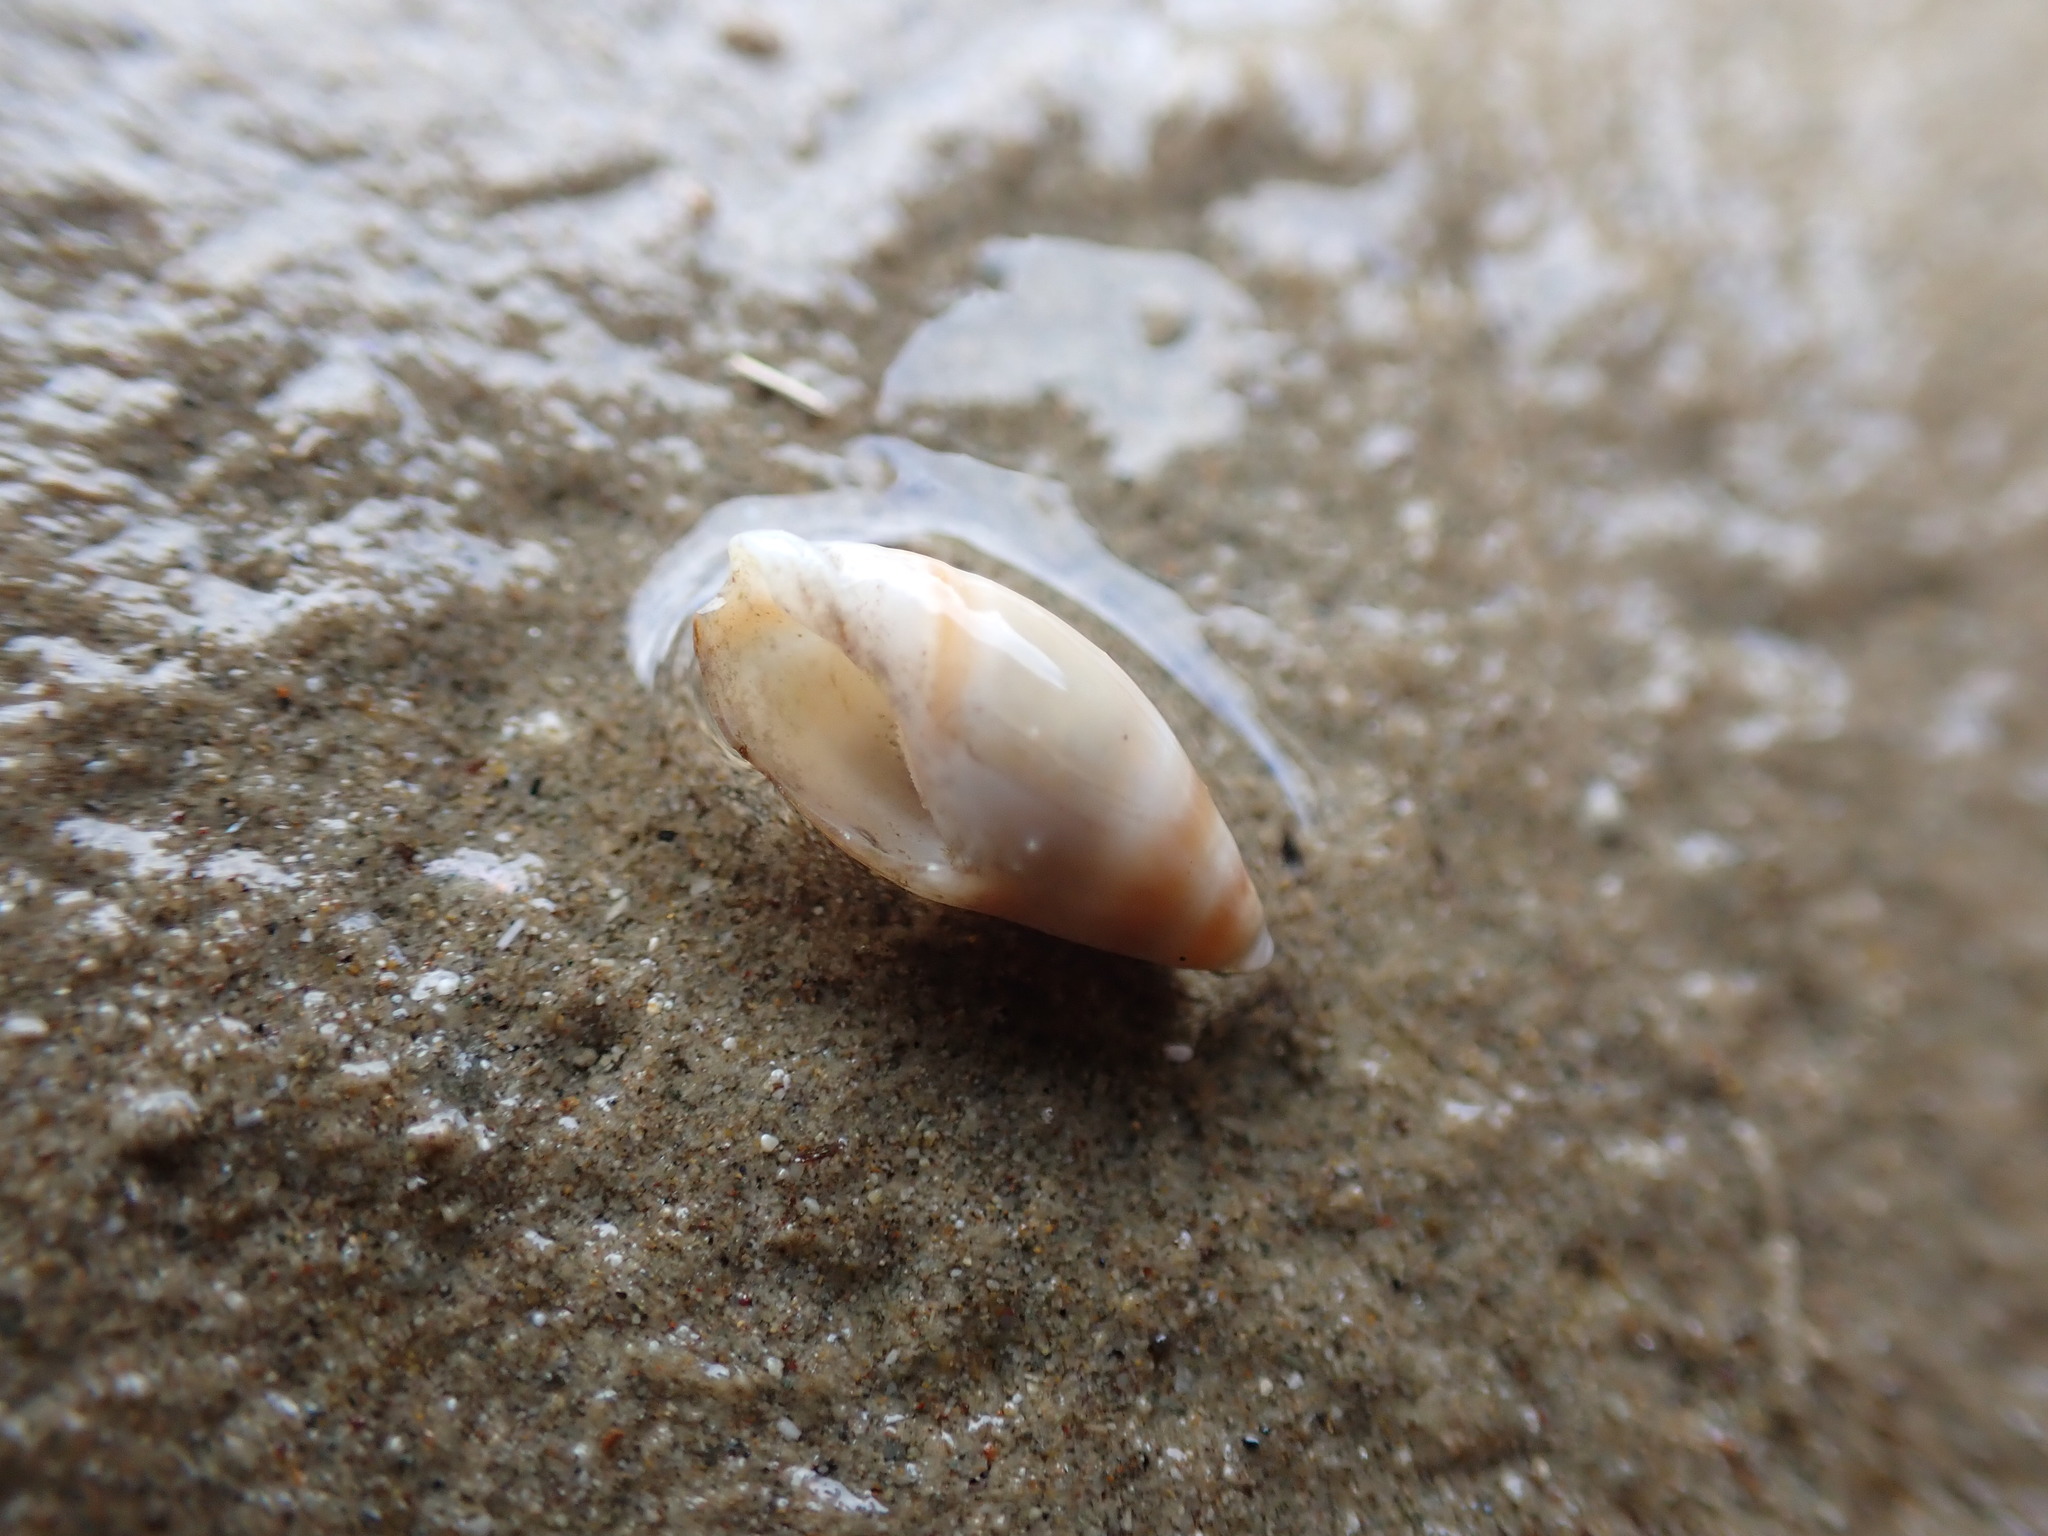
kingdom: Animalia
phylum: Mollusca
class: Gastropoda
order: Neogastropoda
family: Ancillariidae
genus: Amalda
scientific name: Amalda novaezelandiae
